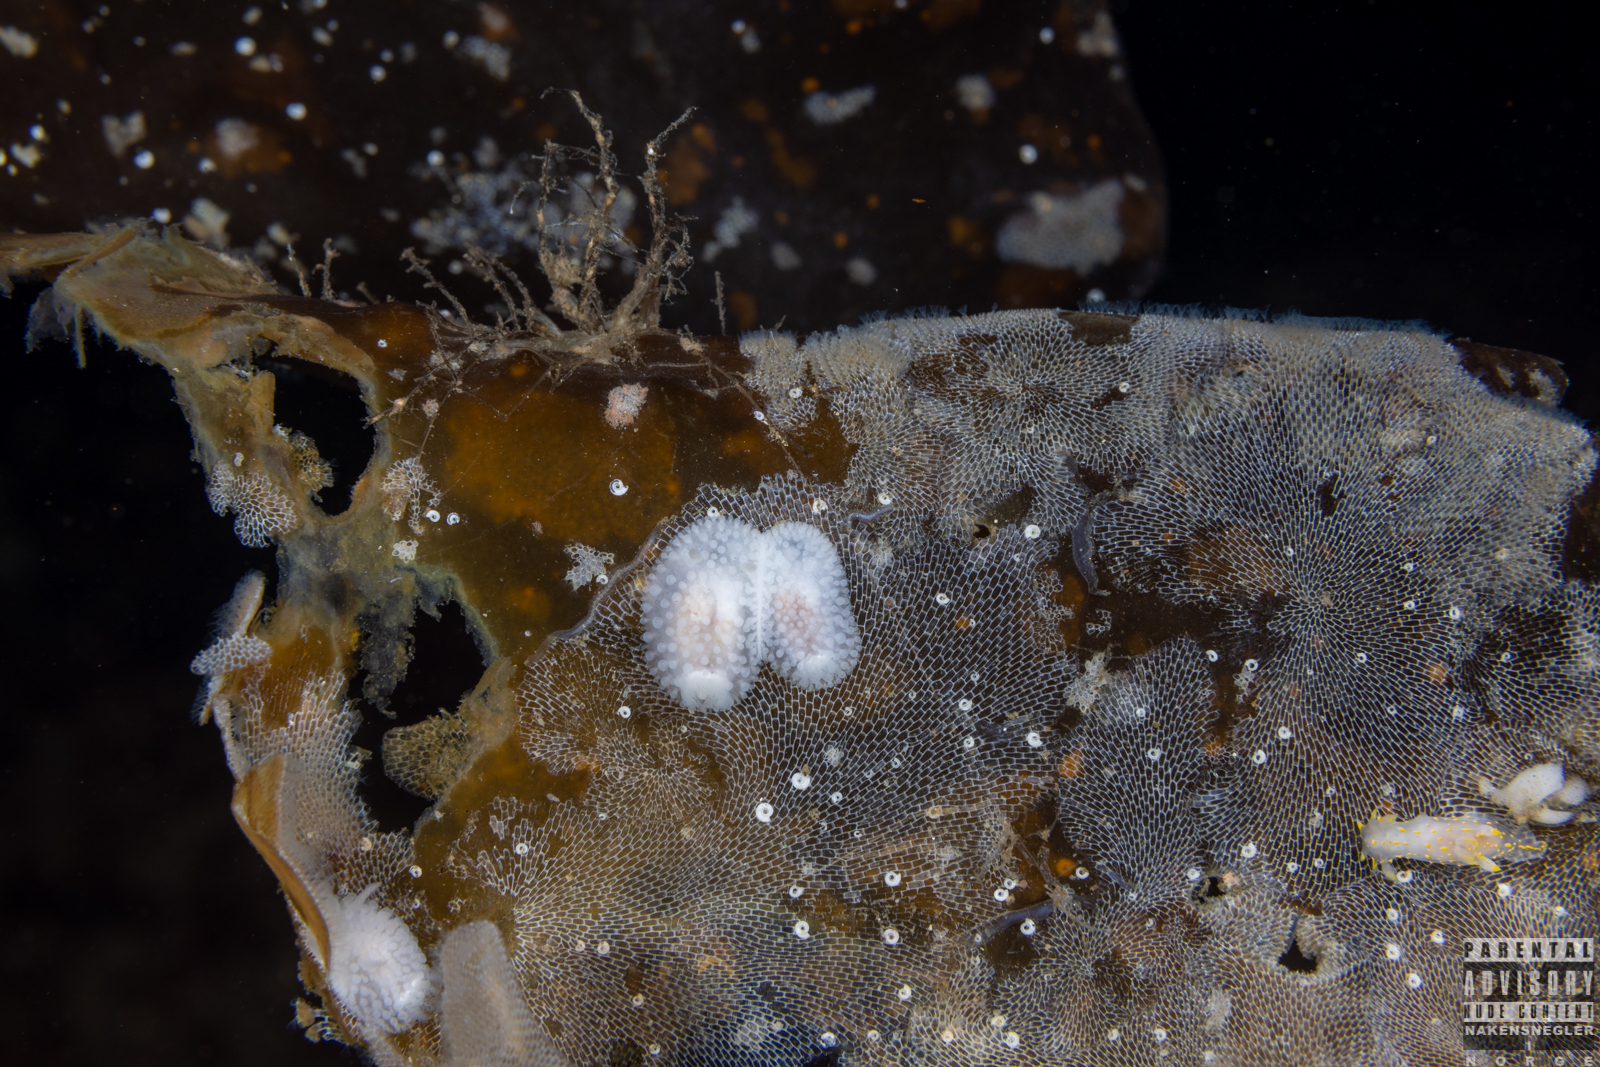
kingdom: Animalia
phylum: Mollusca
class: Gastropoda
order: Nudibranchia
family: Onchidorididae
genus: Onchidoris
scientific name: Onchidoris muricata
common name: Rough doris
